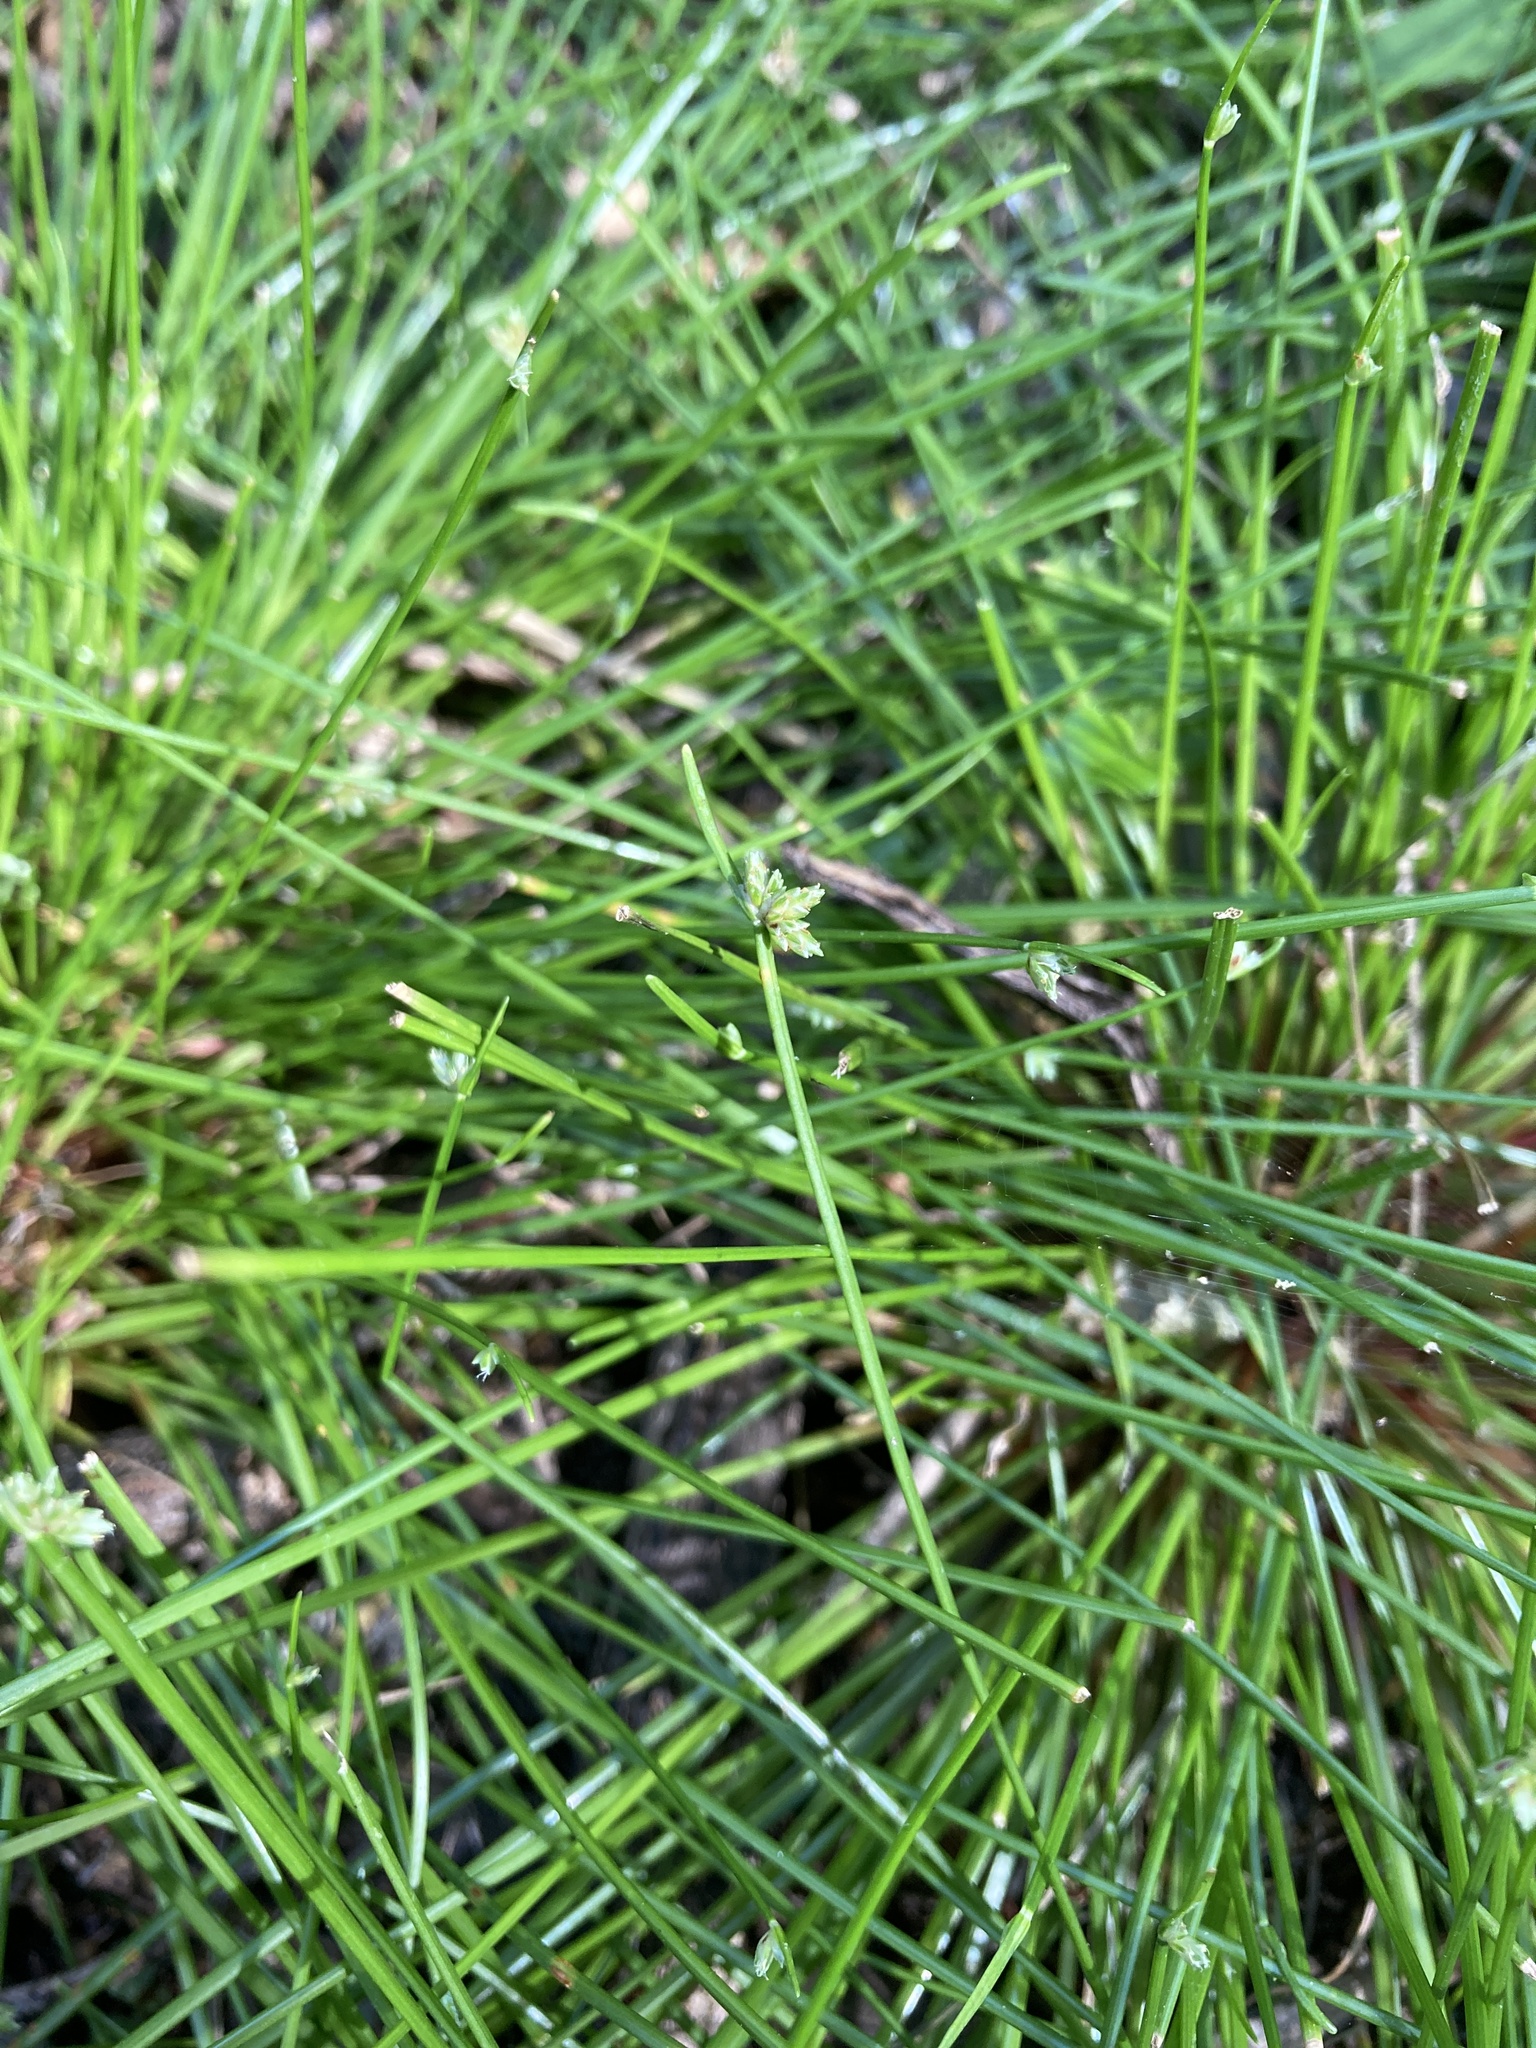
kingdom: Plantae
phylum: Tracheophyta
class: Liliopsida
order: Poales
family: Cyperaceae
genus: Isolepis
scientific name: Isolepis reticularis
